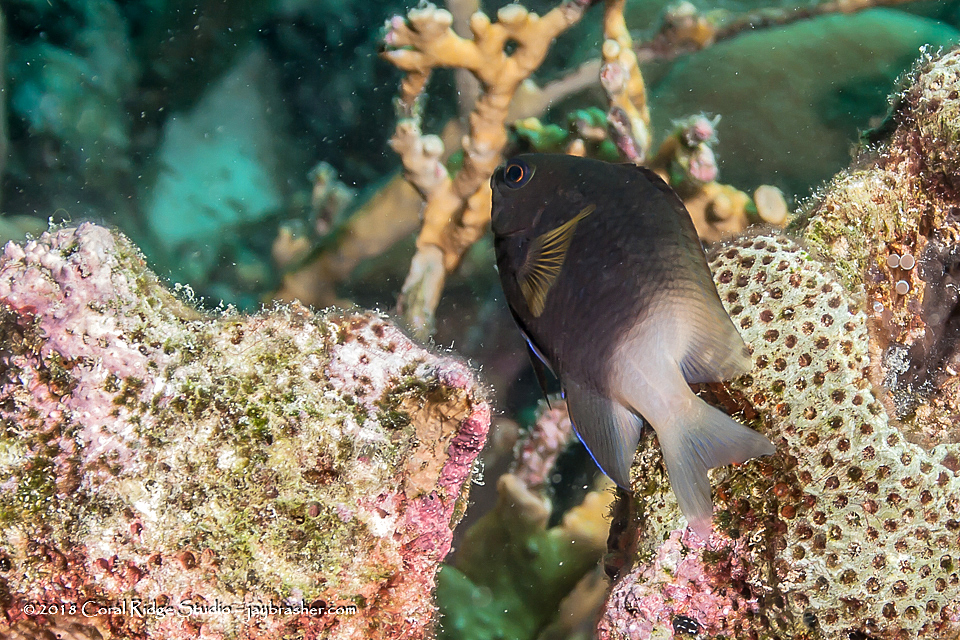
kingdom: Animalia
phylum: Chordata
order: Perciformes
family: Pomacentridae
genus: Stegastes
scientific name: Stegastes partitus
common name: Bicolor damselfish
